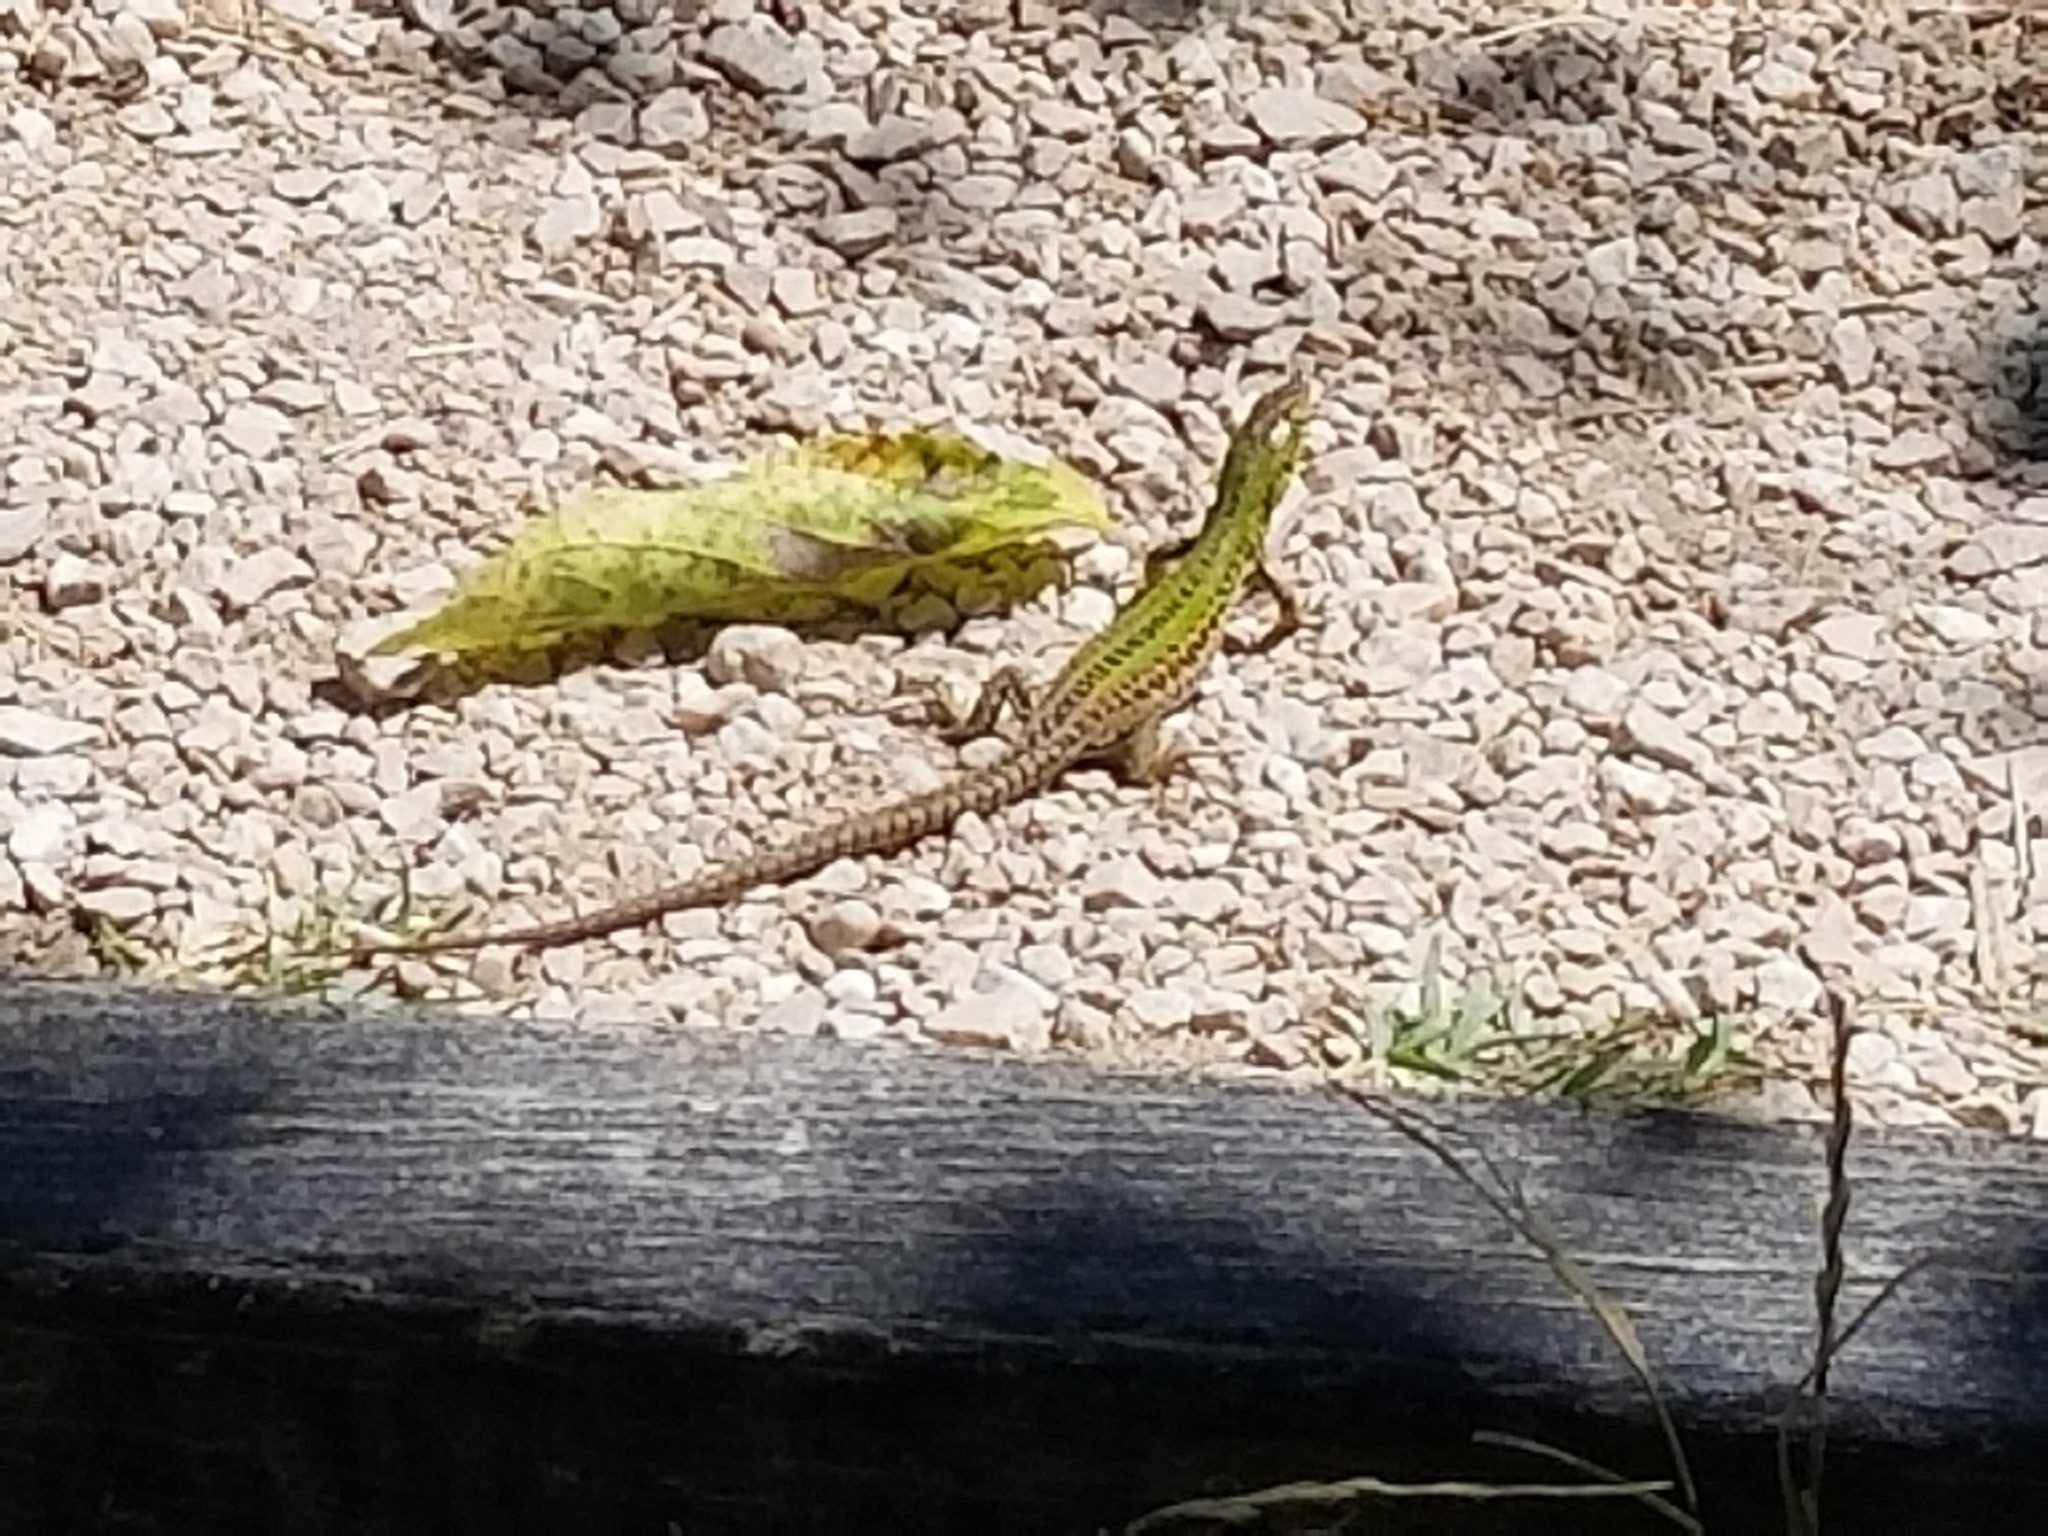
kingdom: Animalia
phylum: Chordata
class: Squamata
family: Lacertidae
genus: Podarcis
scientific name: Podarcis siculus
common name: Italian wall lizard
